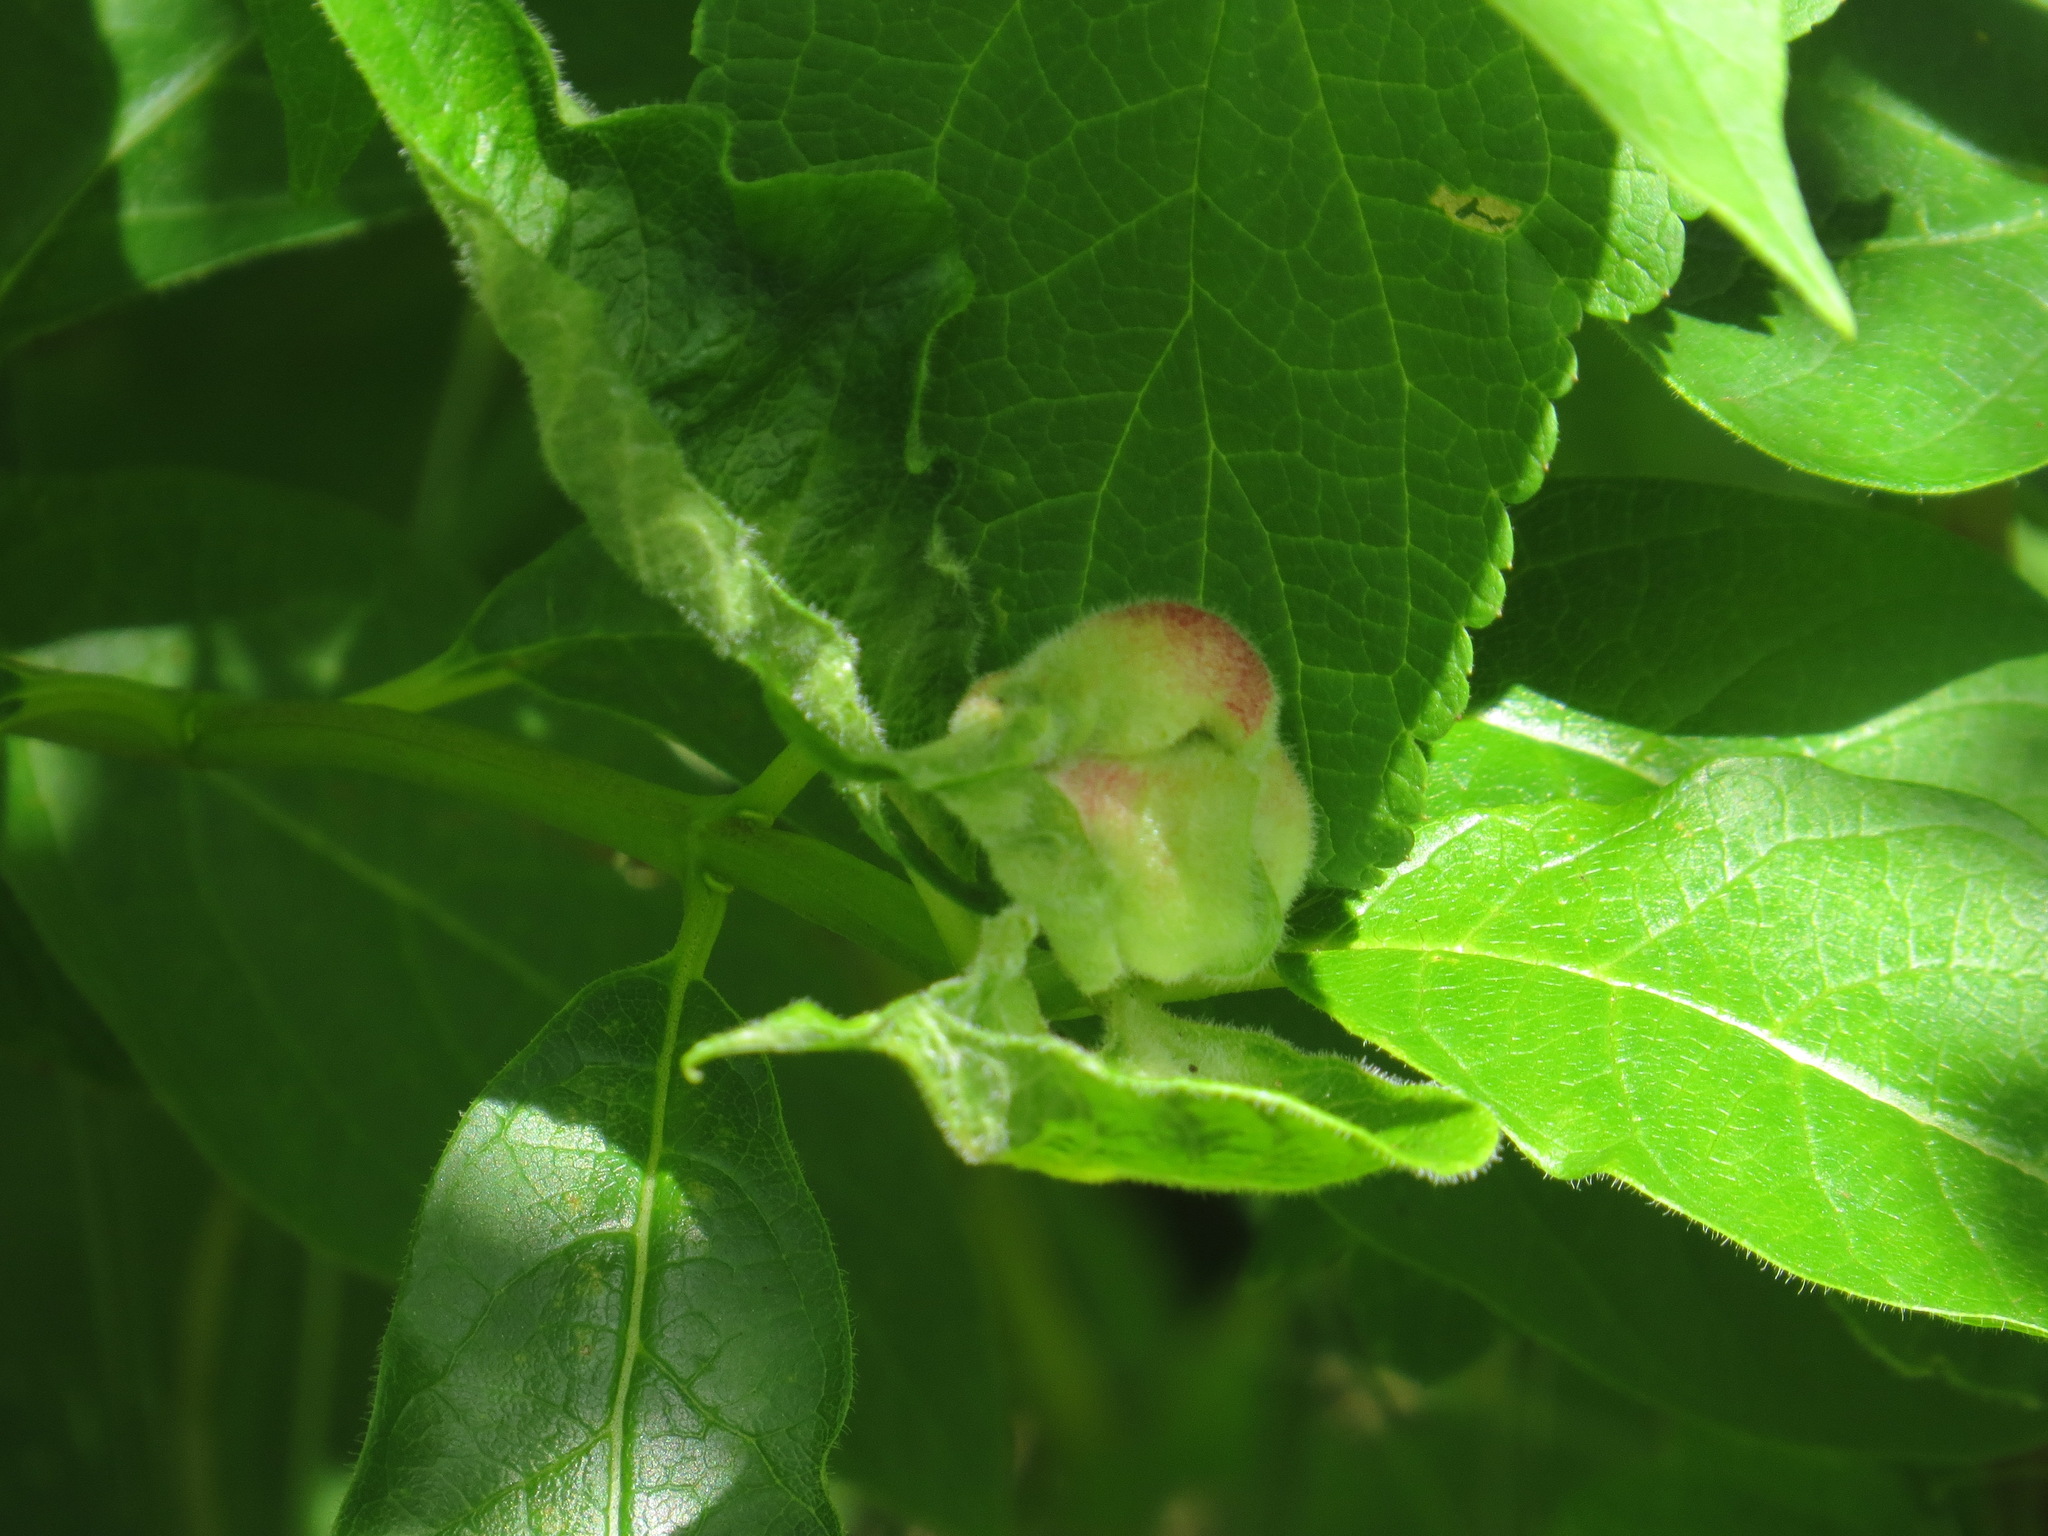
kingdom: Animalia
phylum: Arthropoda
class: Insecta
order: Diptera
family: Cecidomyiidae
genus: Dasineura
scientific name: Dasineura
